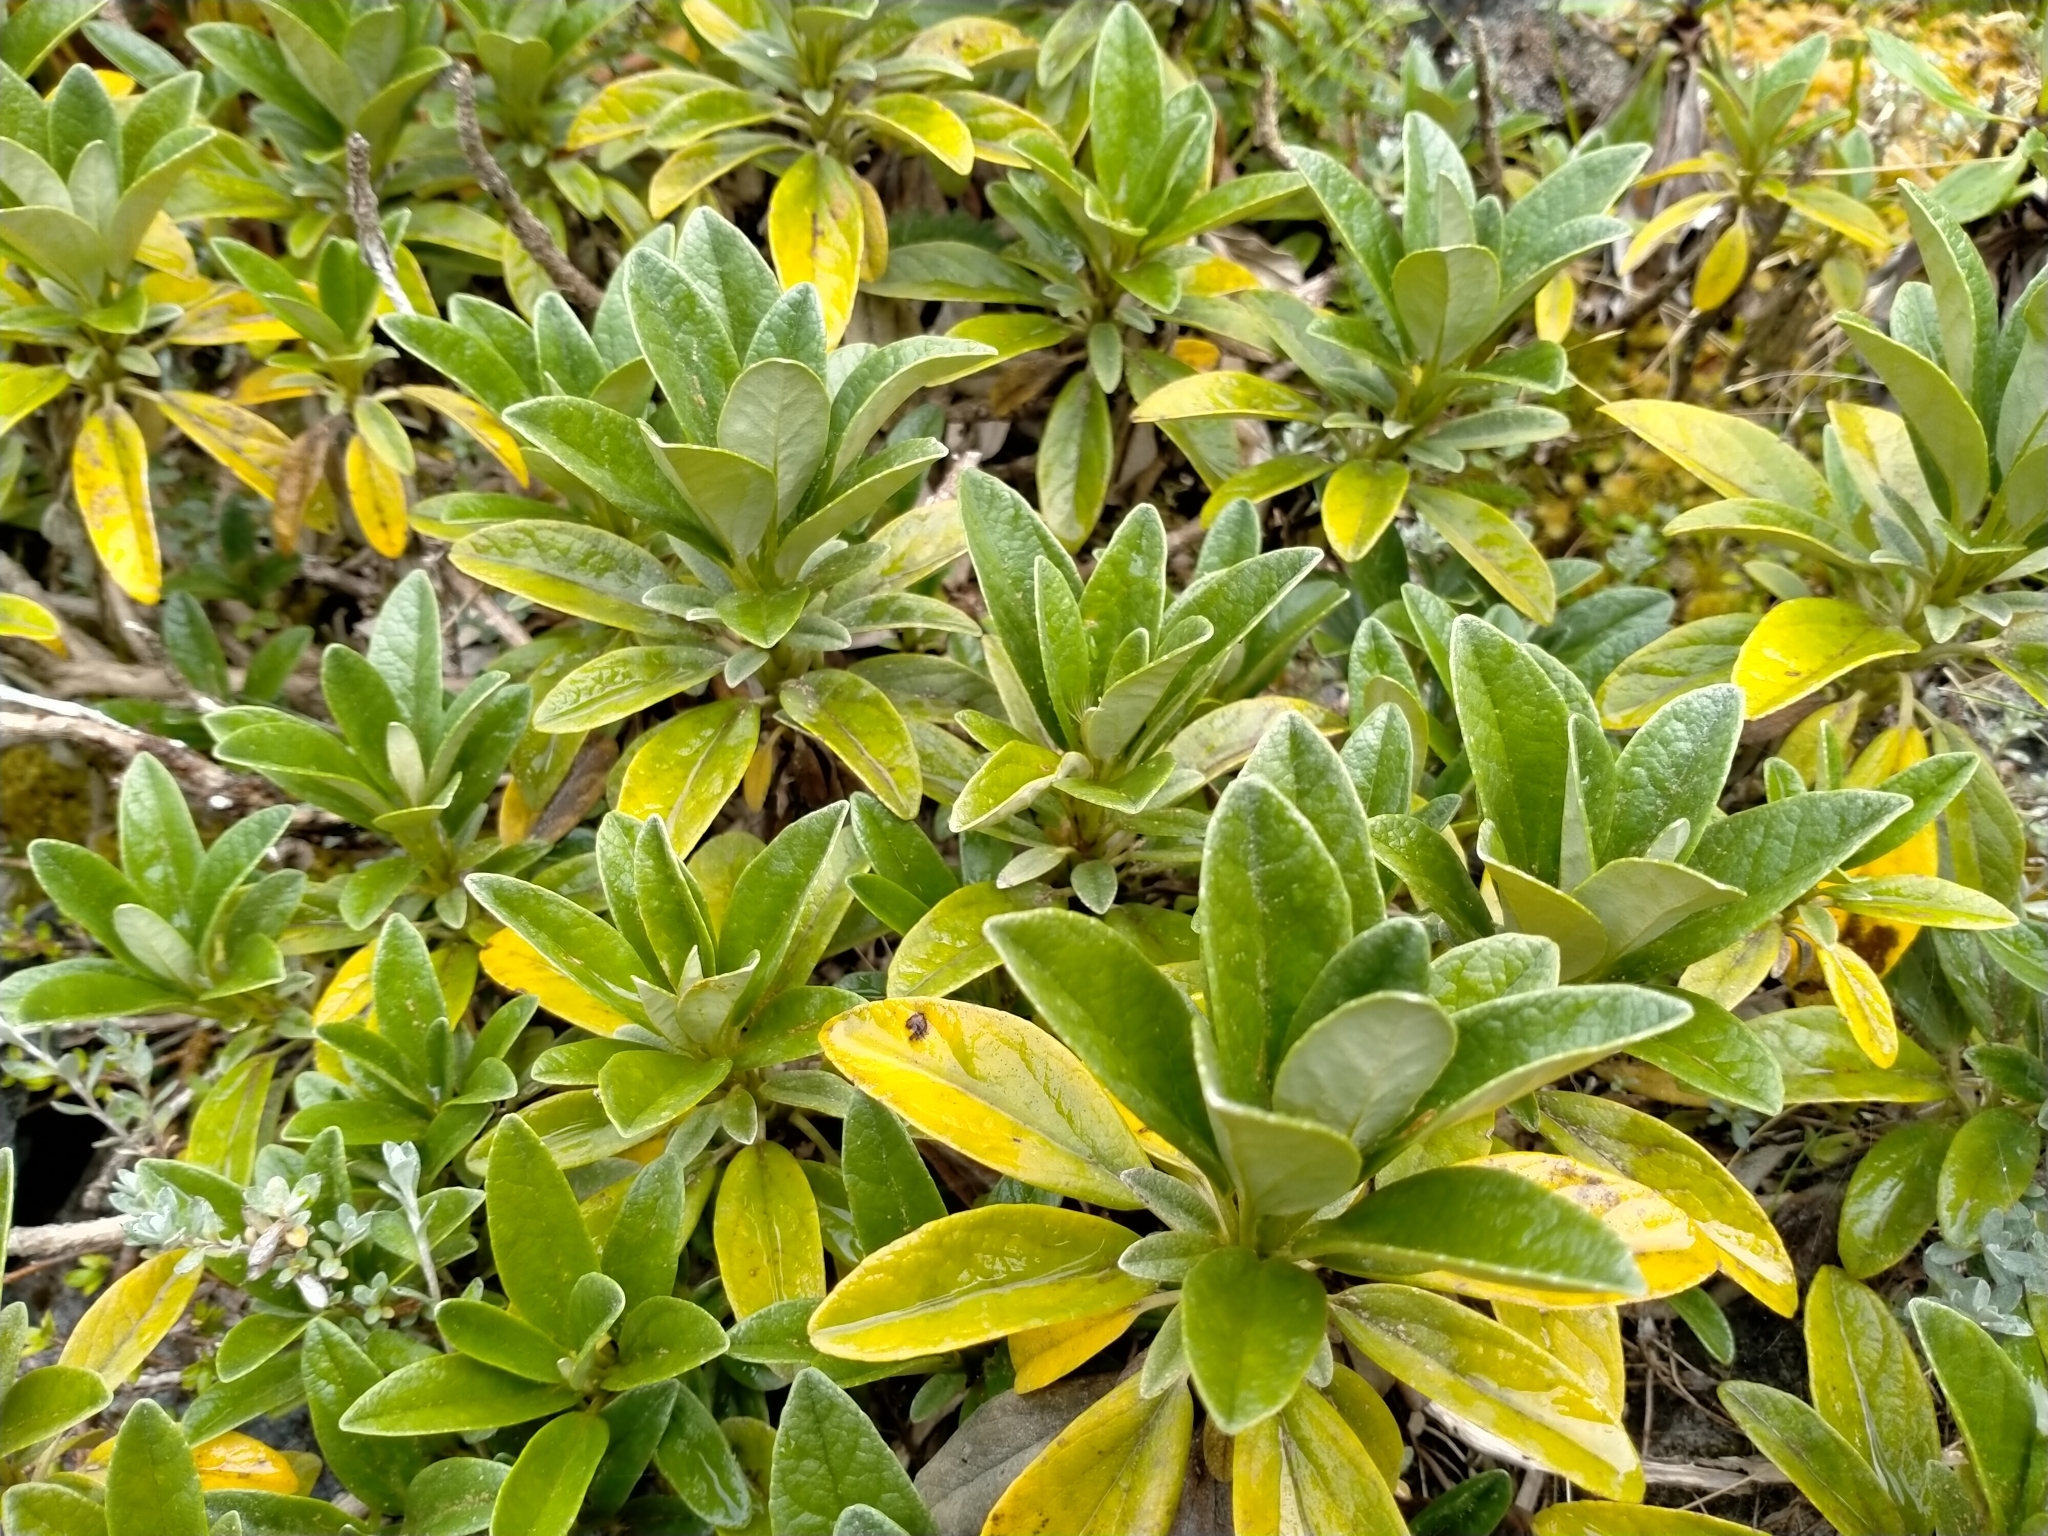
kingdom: Plantae
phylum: Tracheophyta
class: Magnoliopsida
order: Asterales
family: Asteraceae
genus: Brachyglottis
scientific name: Brachyglottis revoluta
